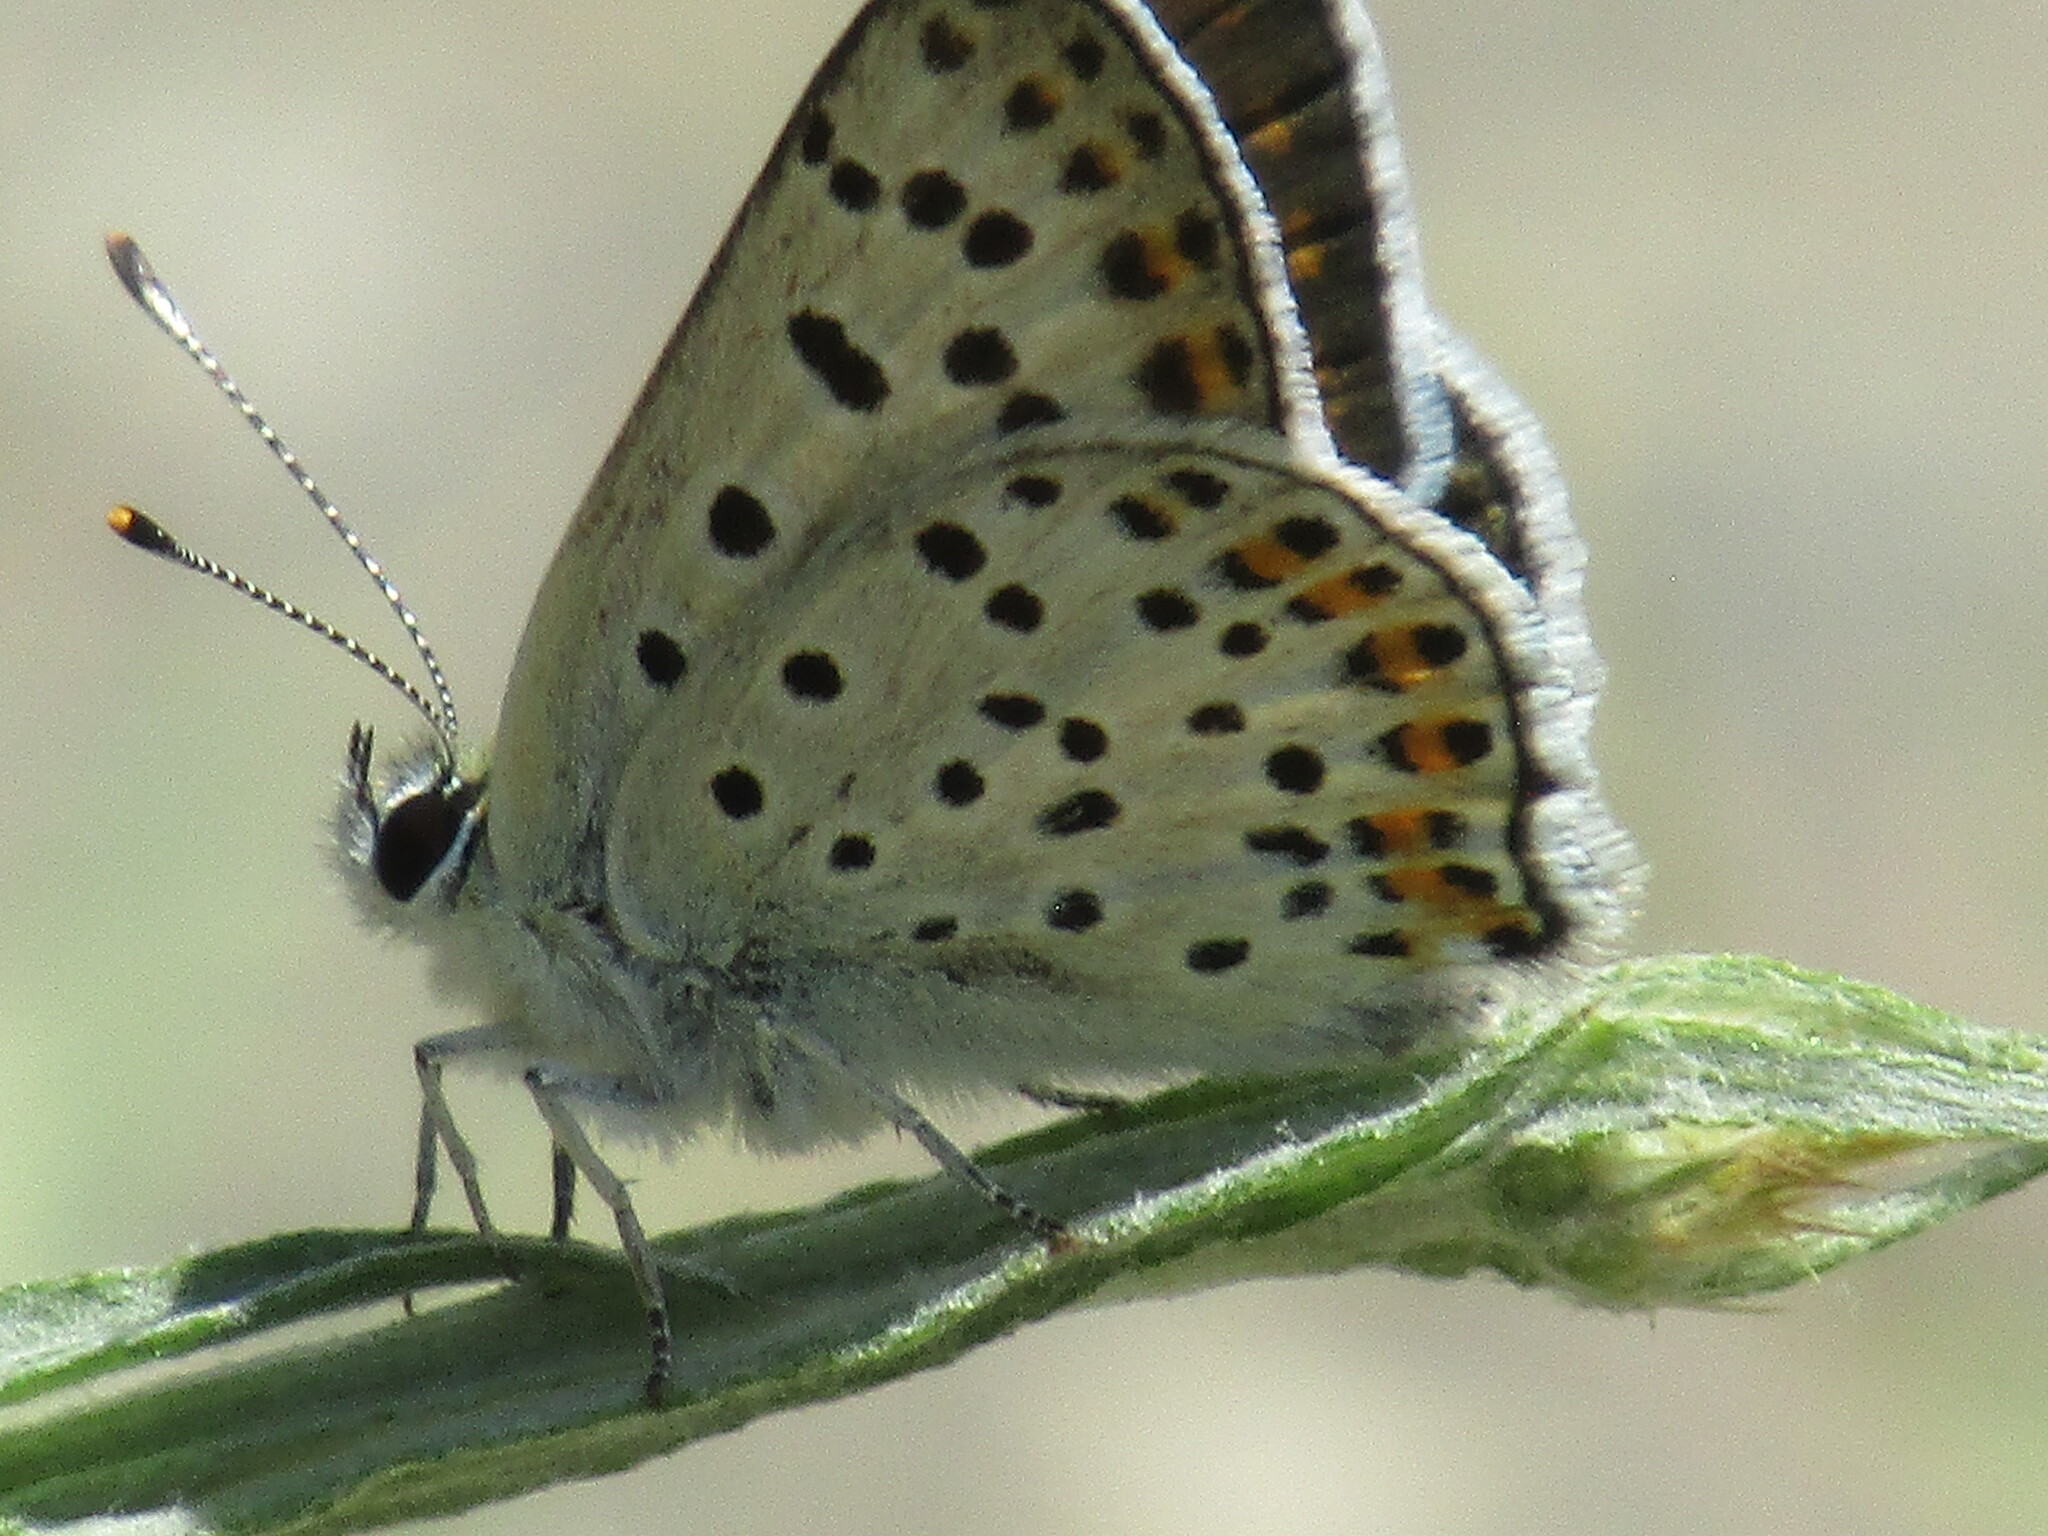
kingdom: Animalia
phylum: Arthropoda
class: Insecta
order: Lepidoptera
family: Lycaenidae
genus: Loweia
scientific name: Loweia tityrus
